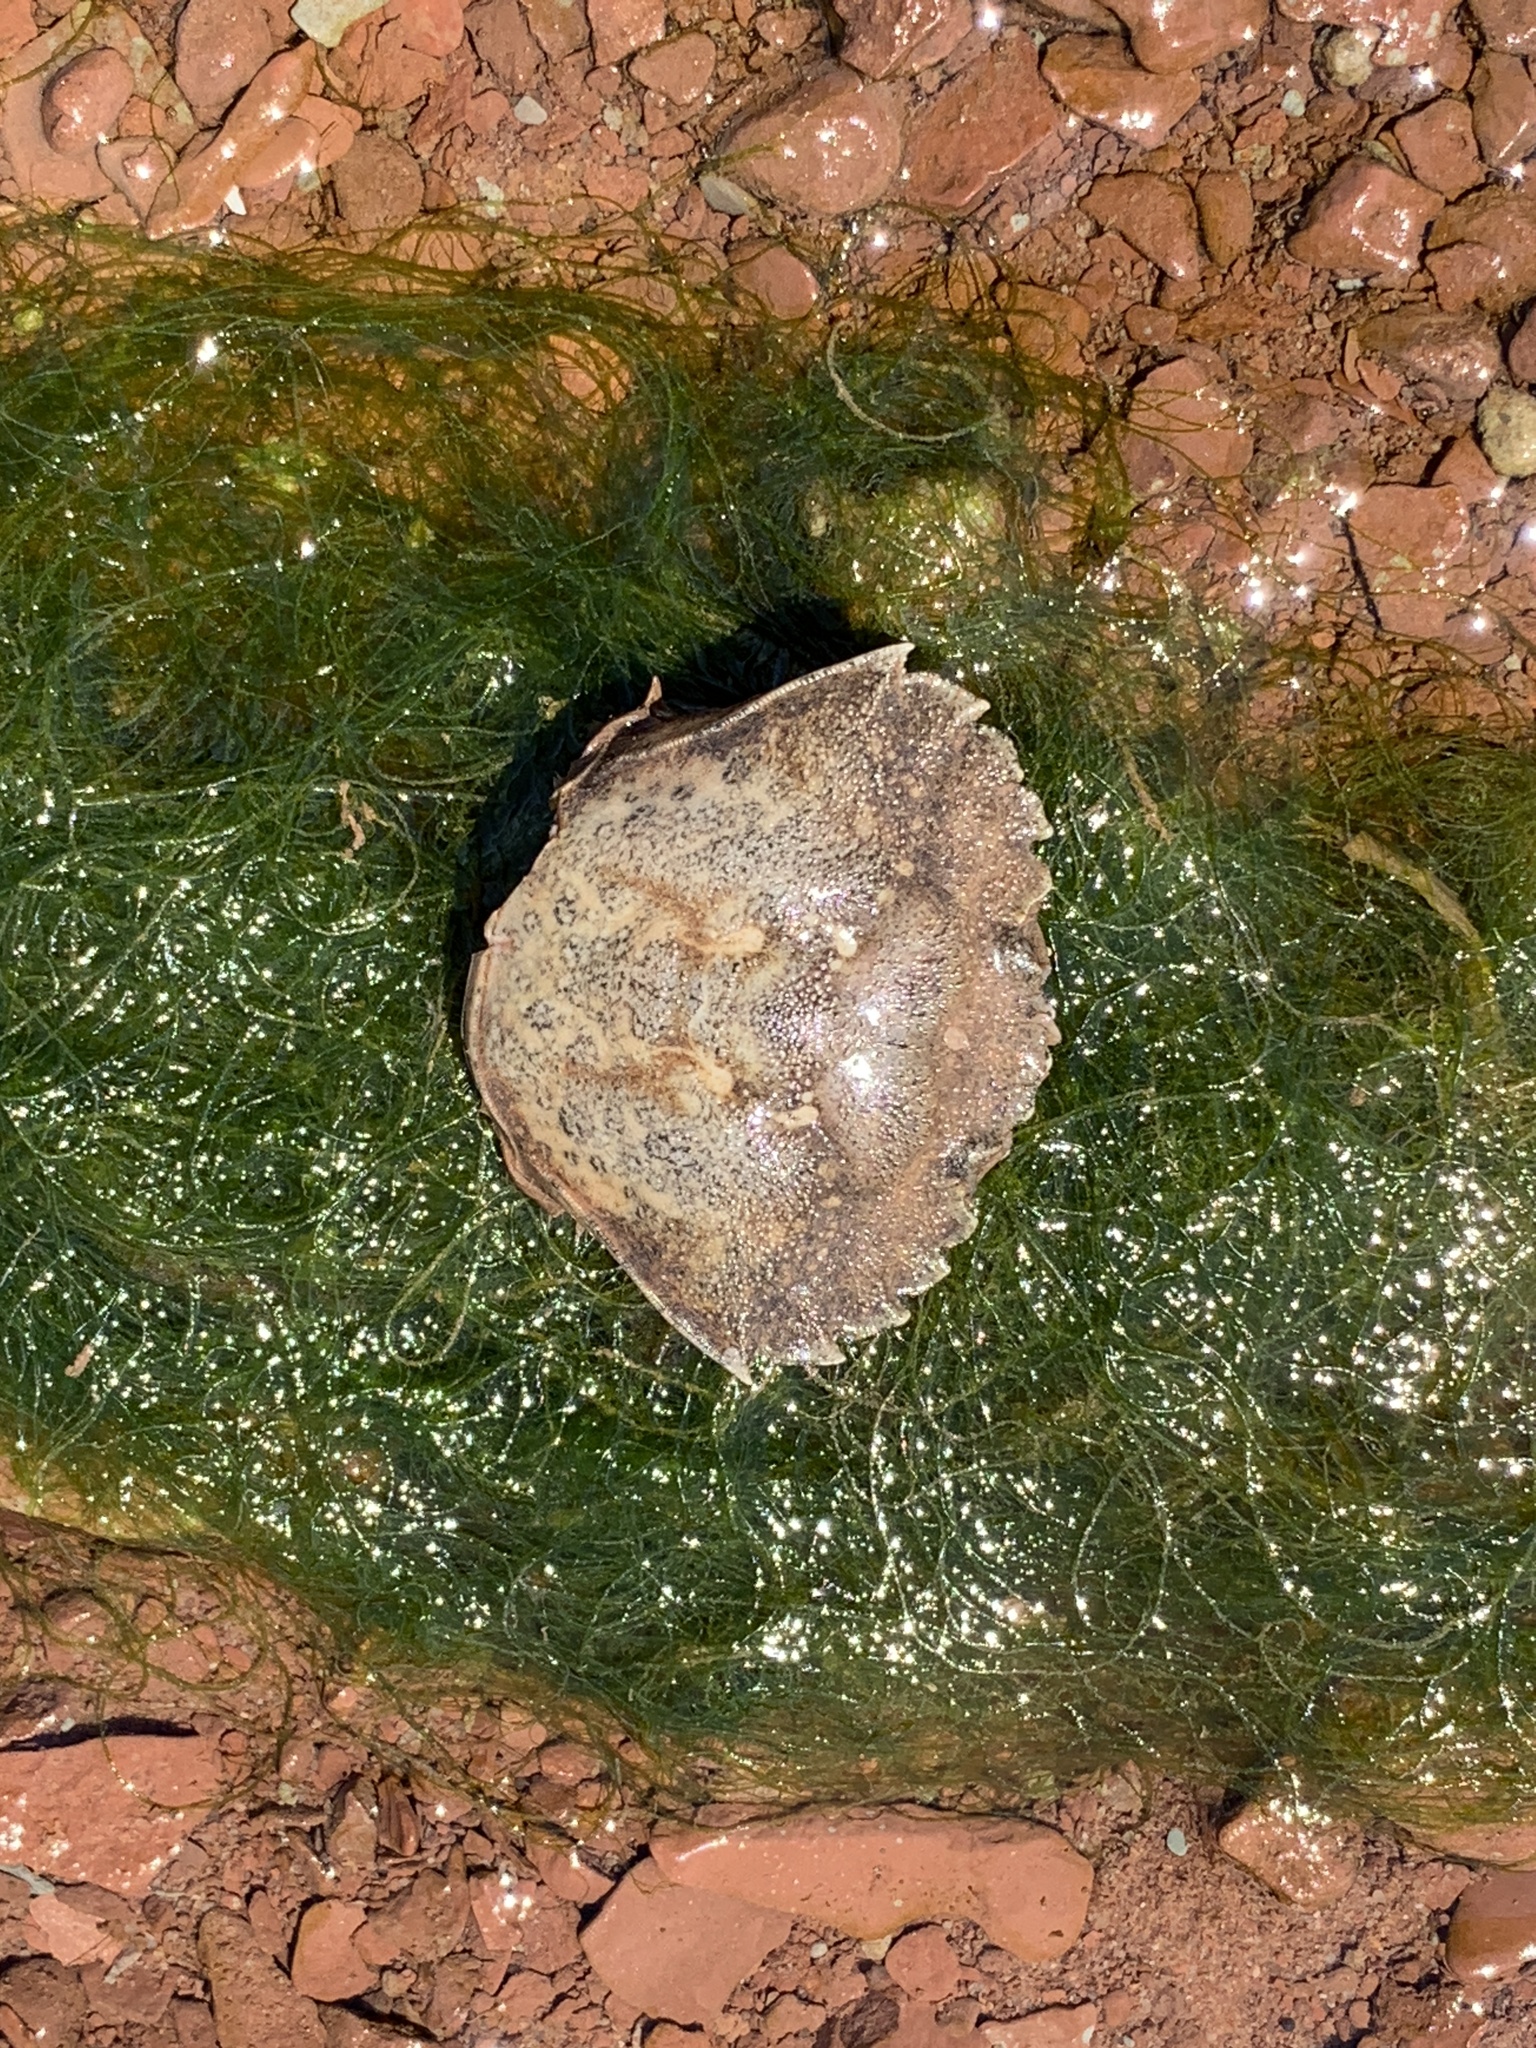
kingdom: Animalia
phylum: Arthropoda
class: Malacostraca
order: Decapoda
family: Carcinidae
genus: Carcinus
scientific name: Carcinus maenas
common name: European green crab
